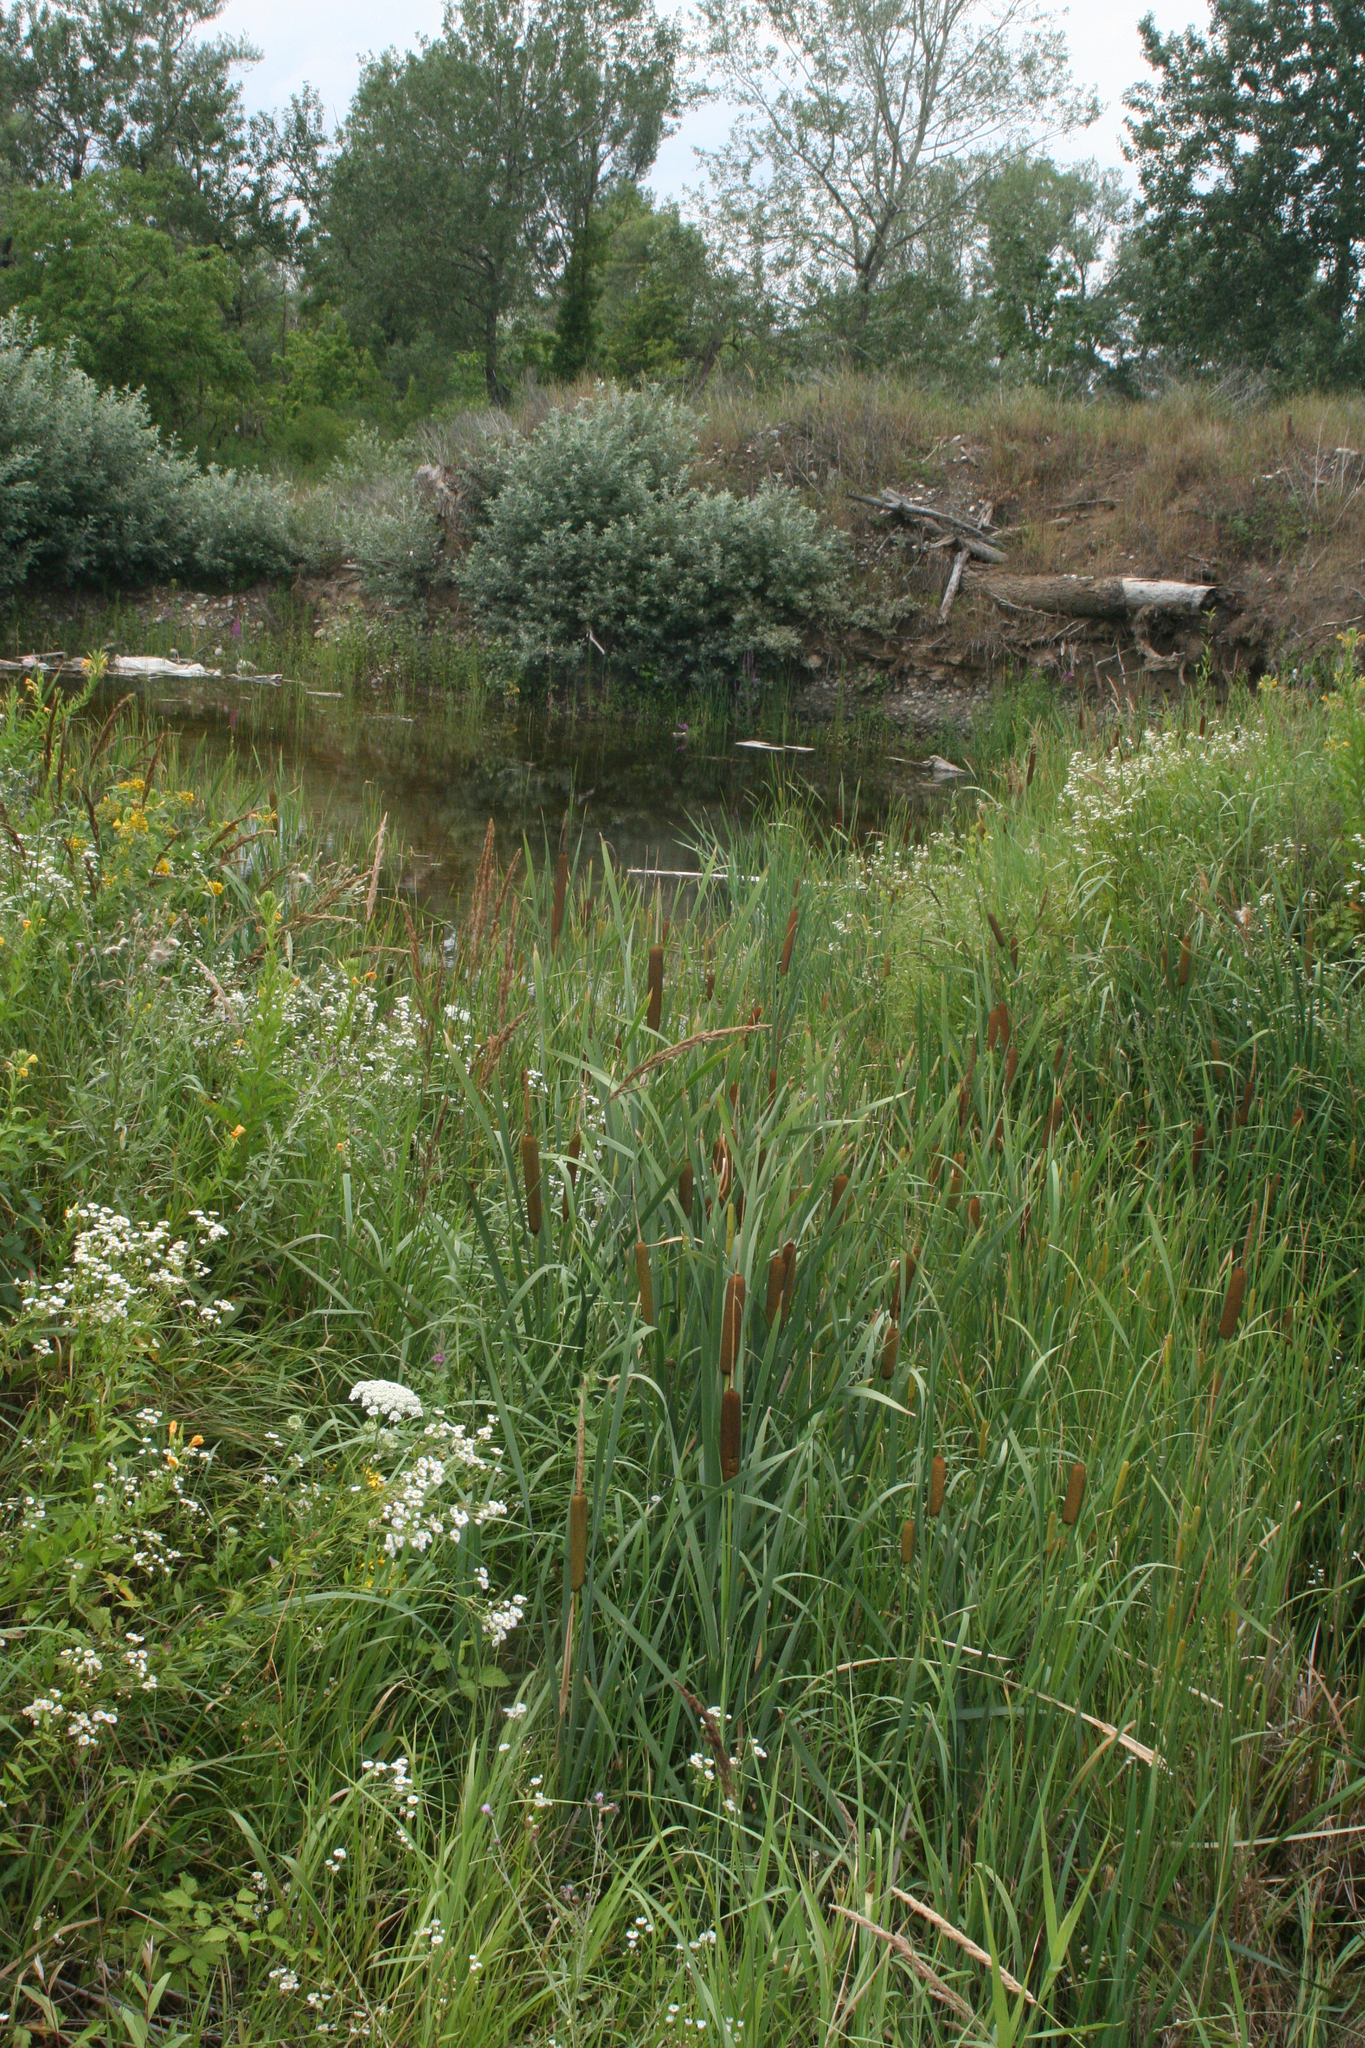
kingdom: Plantae
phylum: Tracheophyta
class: Liliopsida
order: Poales
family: Typhaceae
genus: Typha
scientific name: Typha latifolia
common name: Broadleaf cattail
